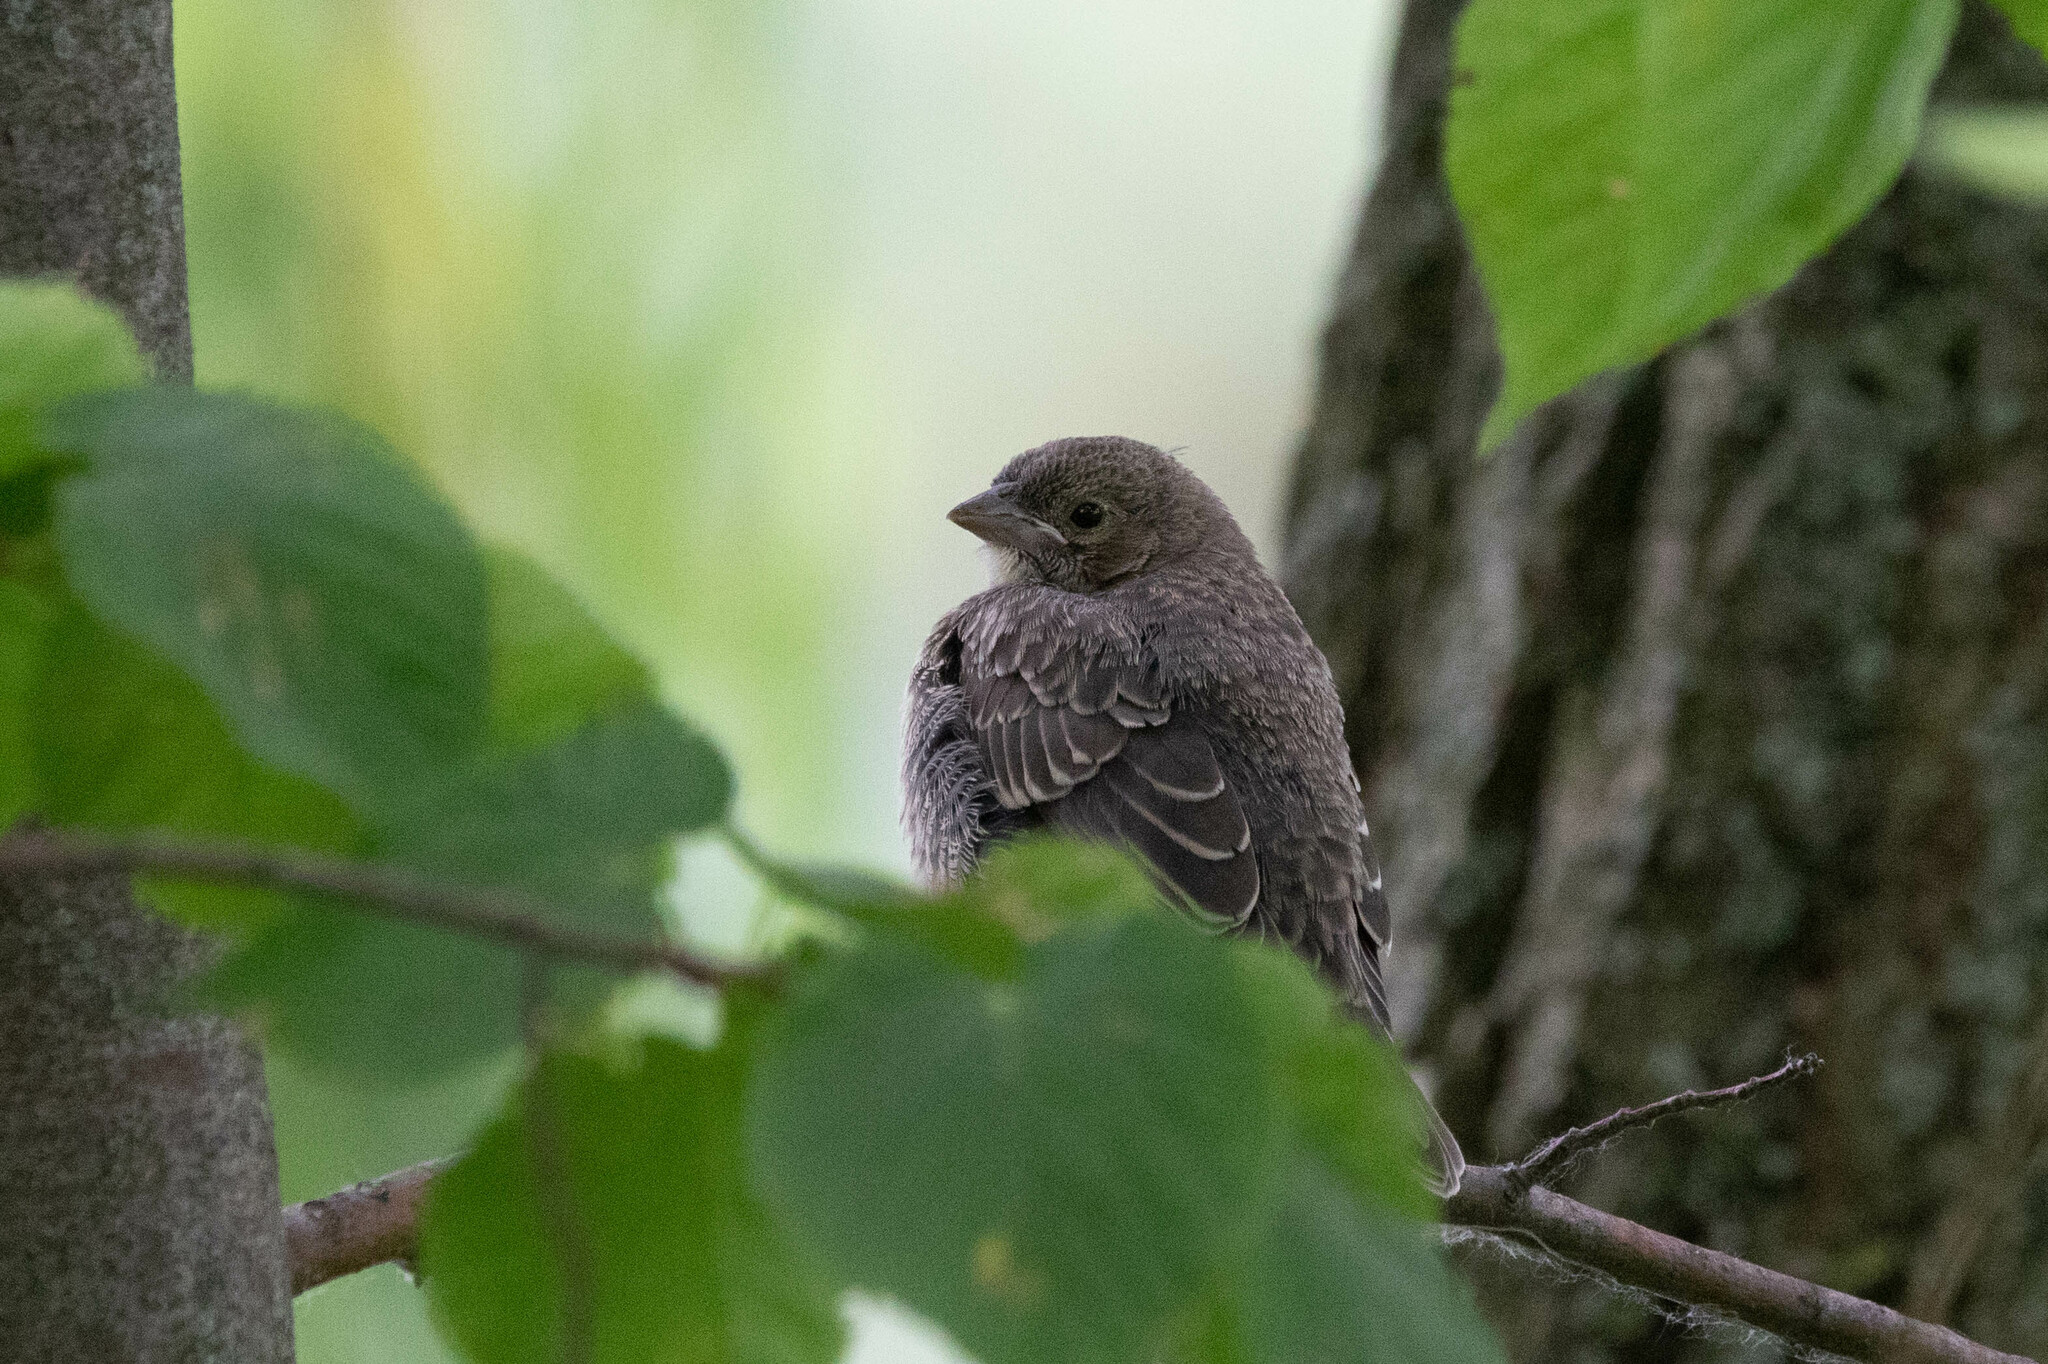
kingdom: Animalia
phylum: Chordata
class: Aves
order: Passeriformes
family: Icteridae
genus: Molothrus
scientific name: Molothrus ater
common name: Brown-headed cowbird
